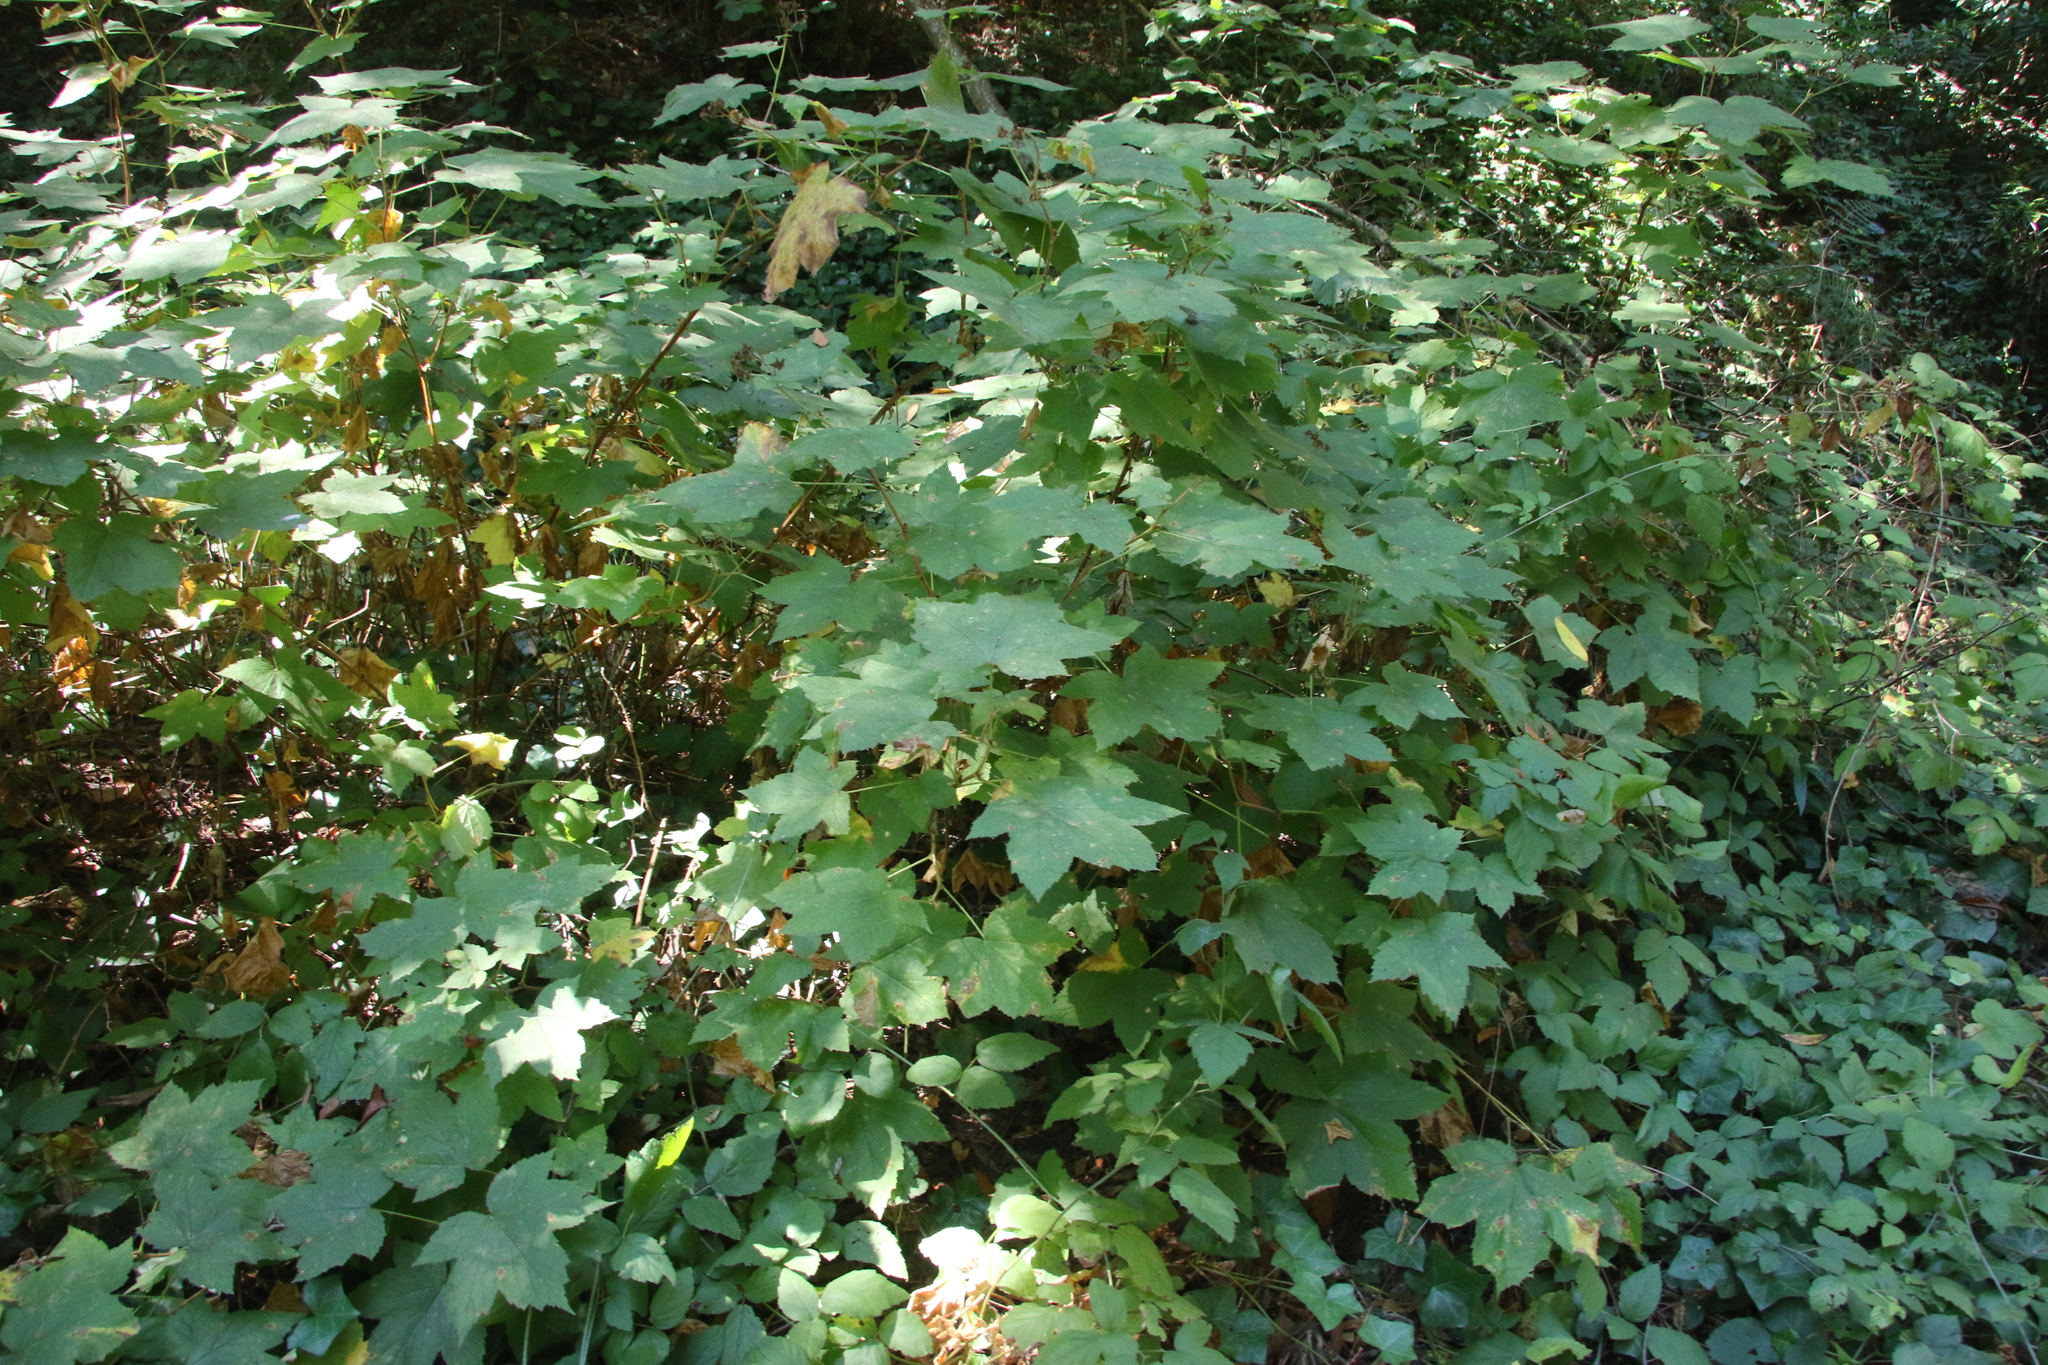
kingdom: Plantae
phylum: Tracheophyta
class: Magnoliopsida
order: Rosales
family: Rosaceae
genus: Rubus
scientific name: Rubus parviflorus
